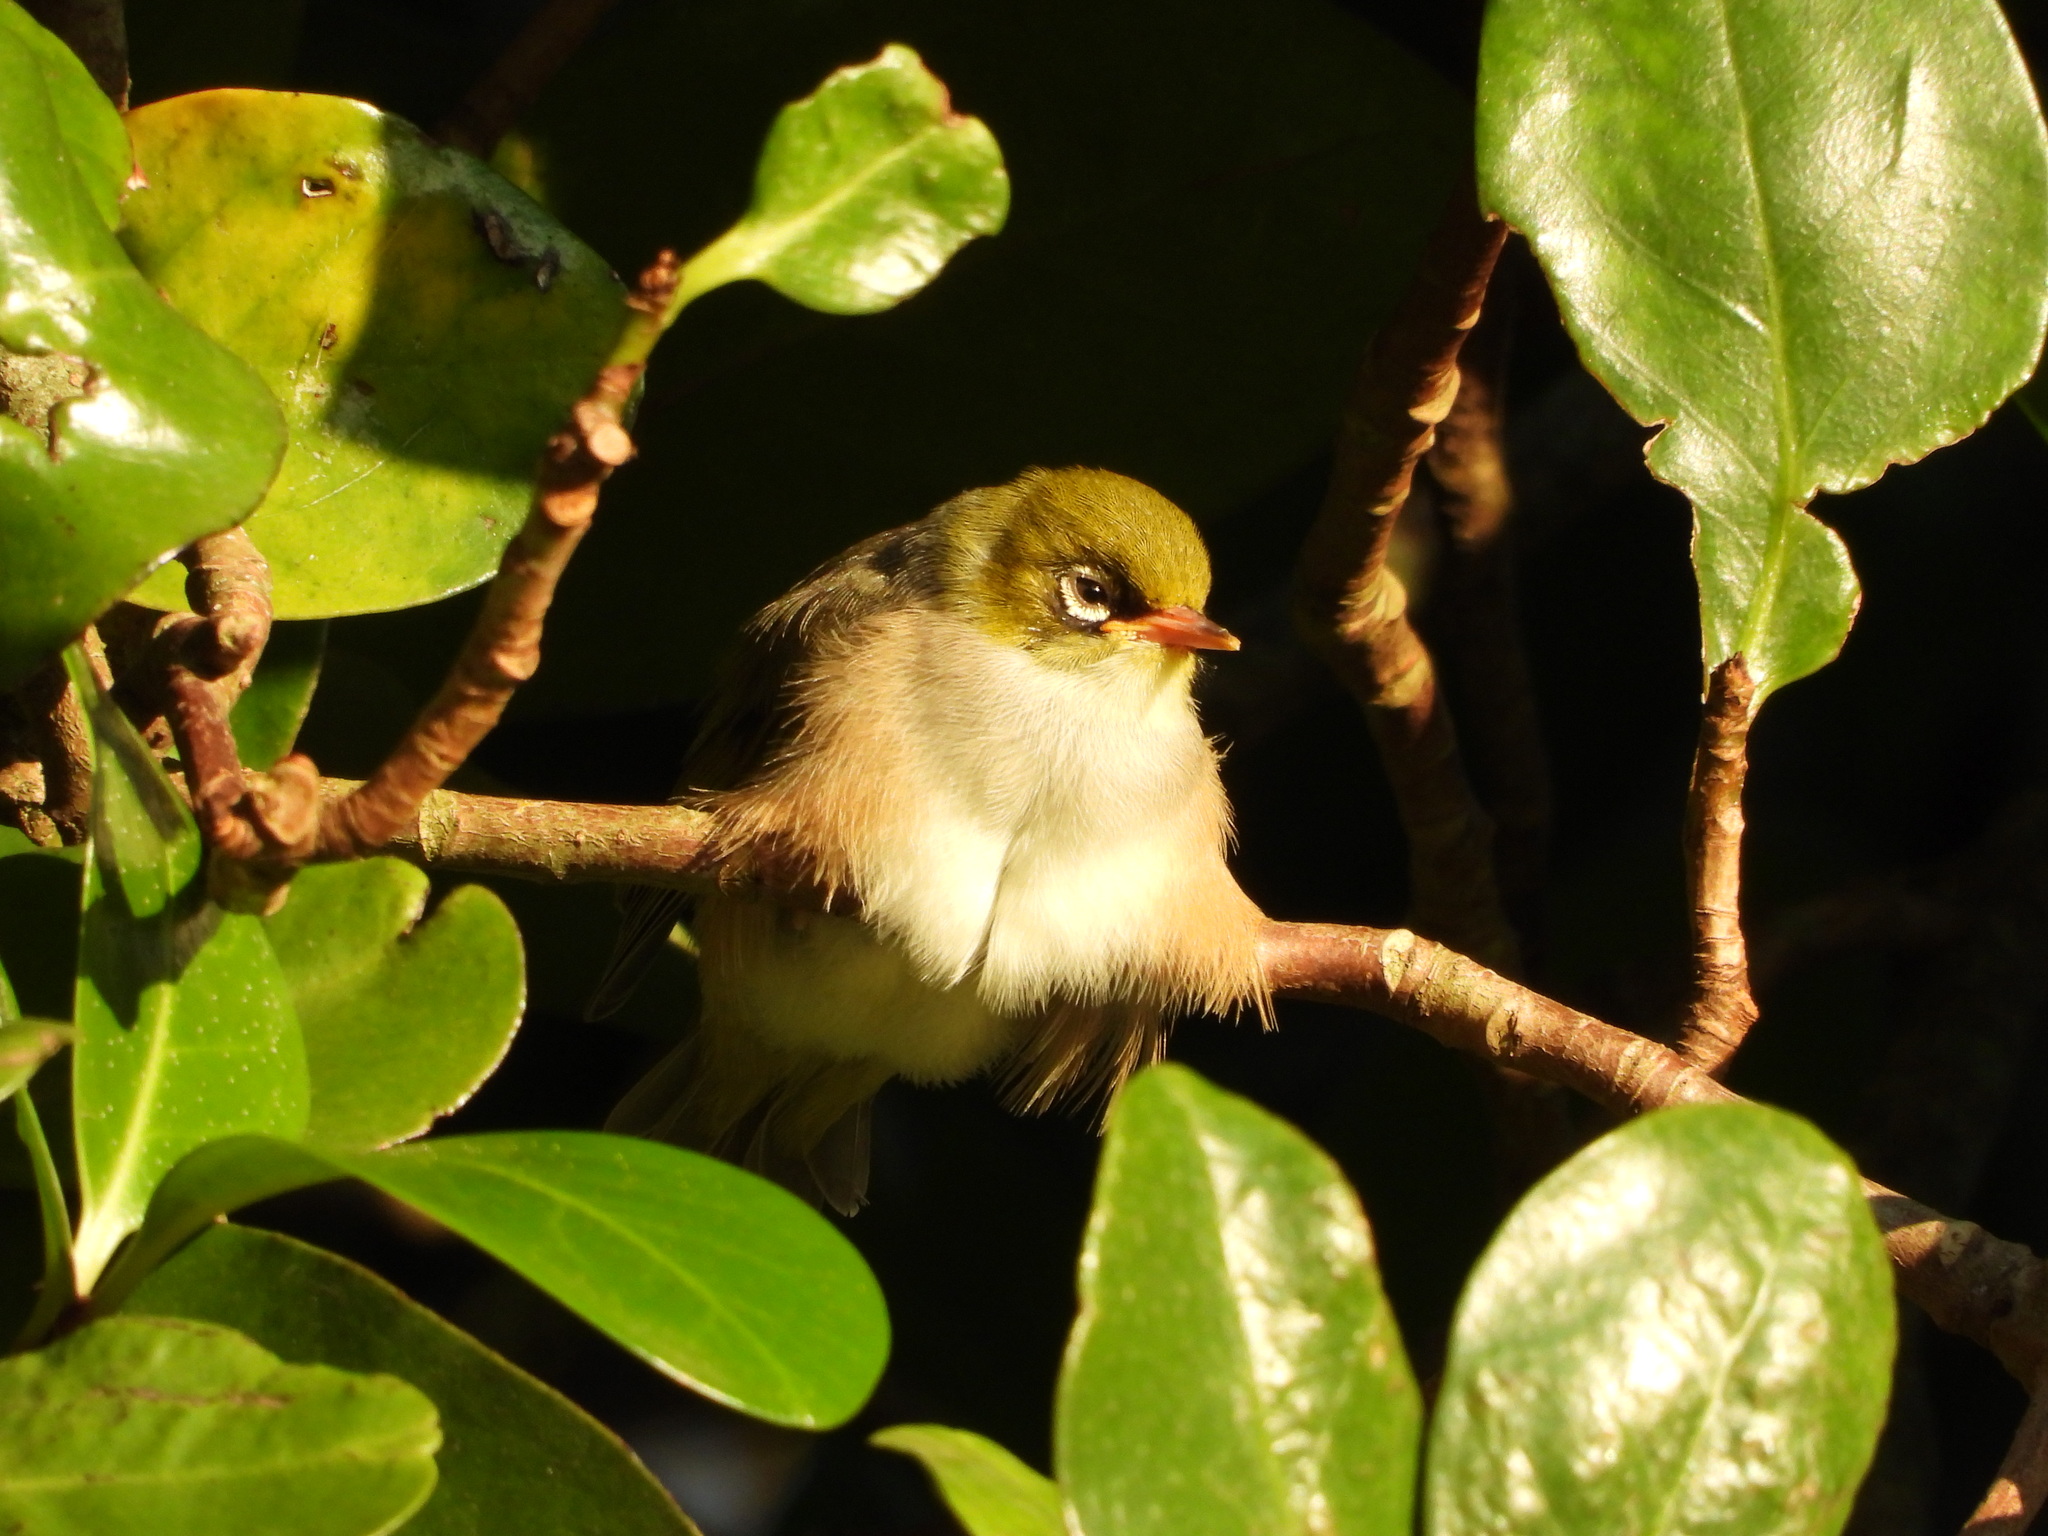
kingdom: Animalia
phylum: Chordata
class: Aves
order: Passeriformes
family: Zosteropidae
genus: Zosterops
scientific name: Zosterops lateralis
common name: Silvereye
